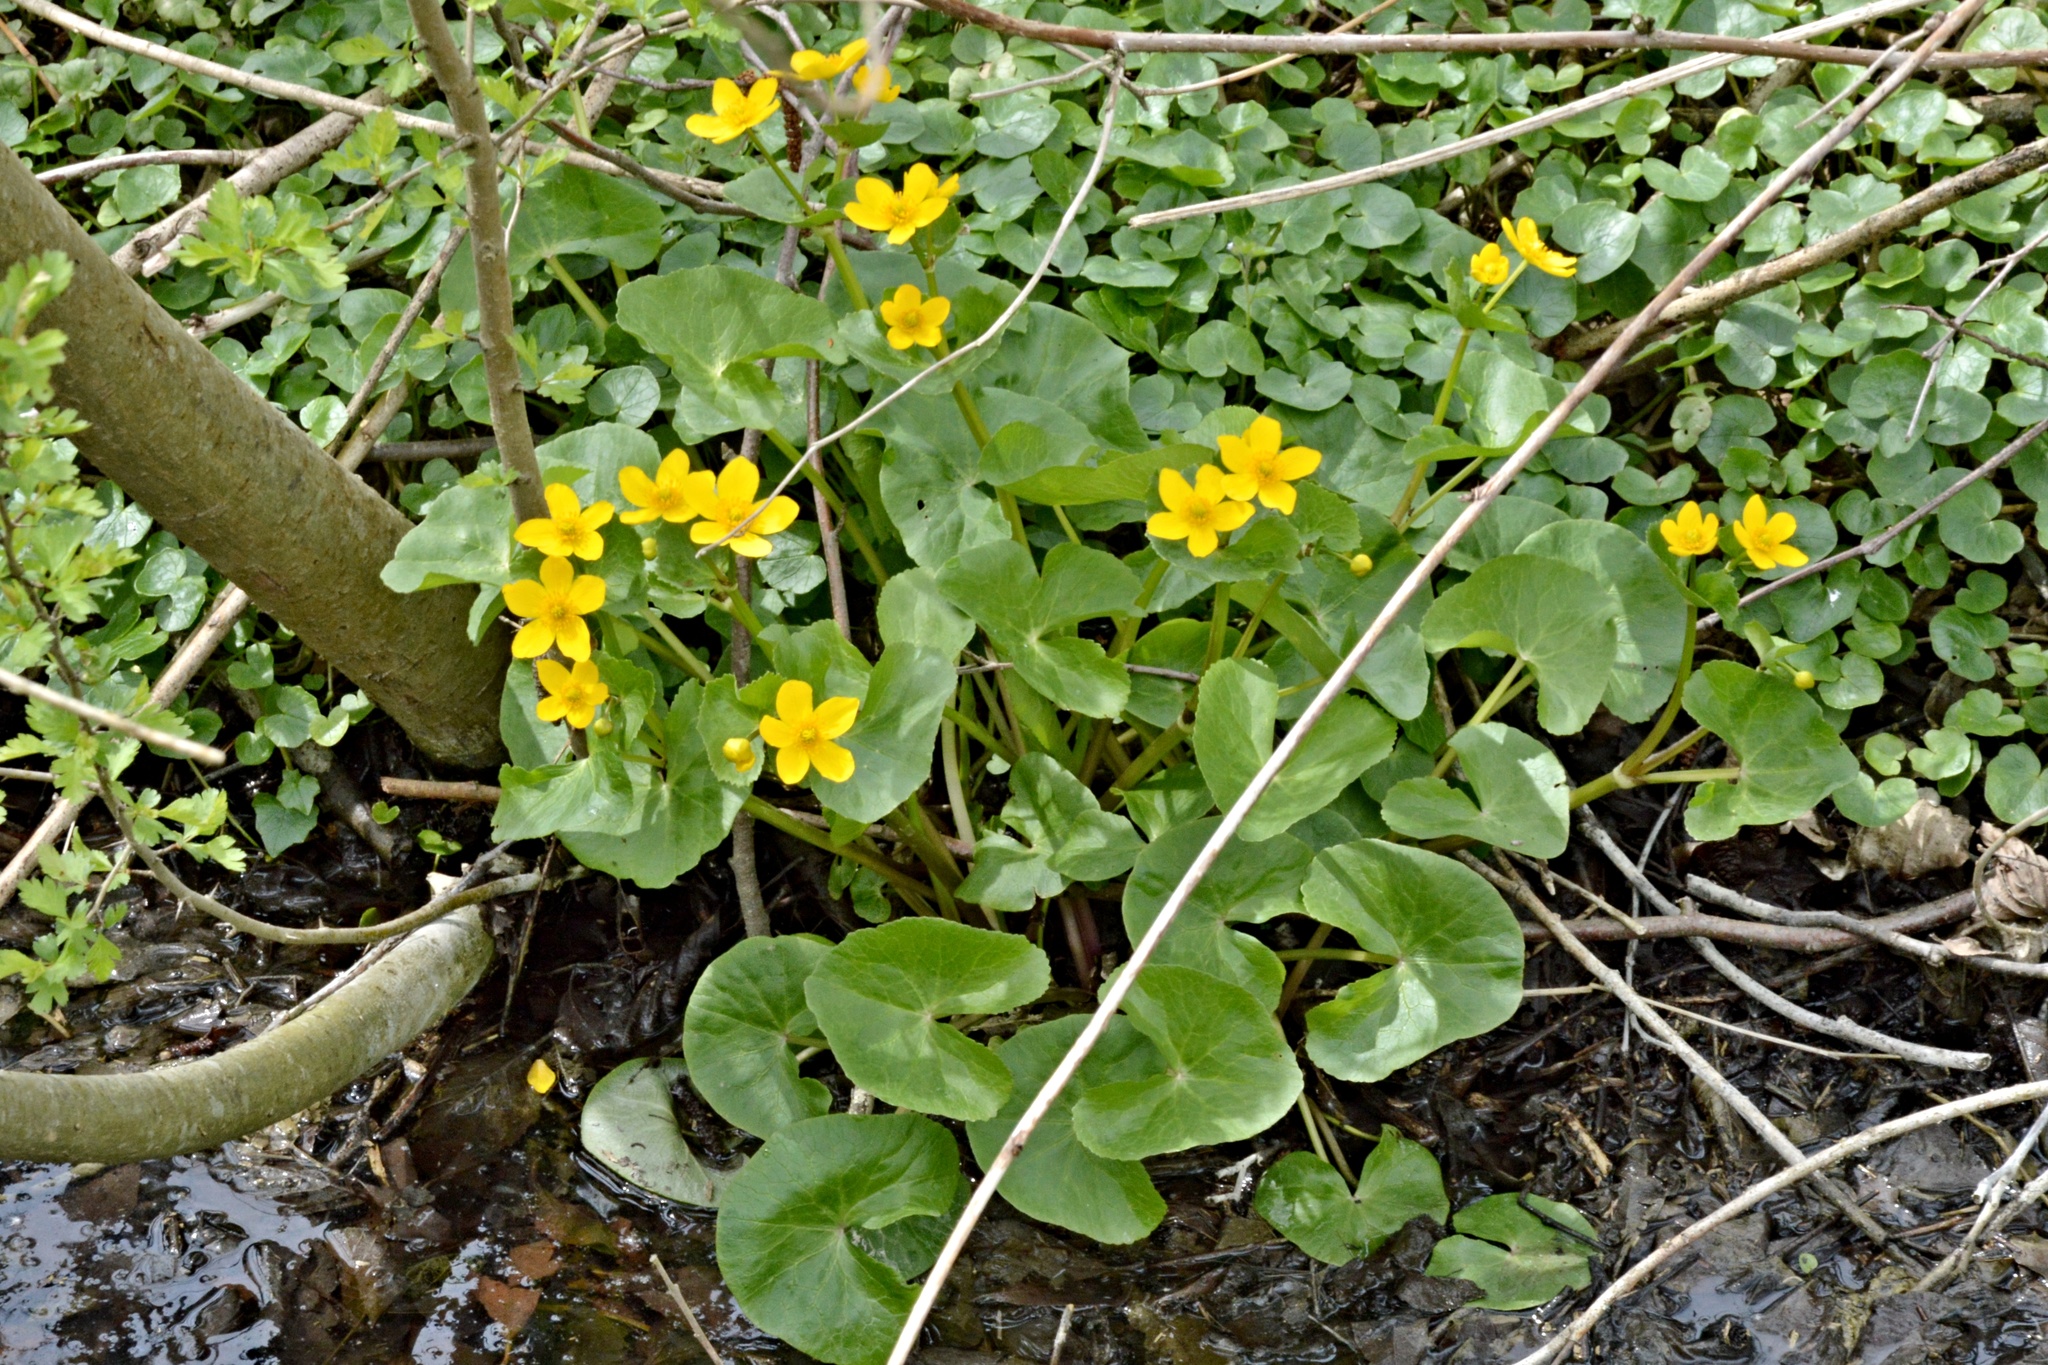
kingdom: Plantae
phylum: Tracheophyta
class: Magnoliopsida
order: Ranunculales
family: Ranunculaceae
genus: Caltha
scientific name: Caltha palustris
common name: Marsh marigold
